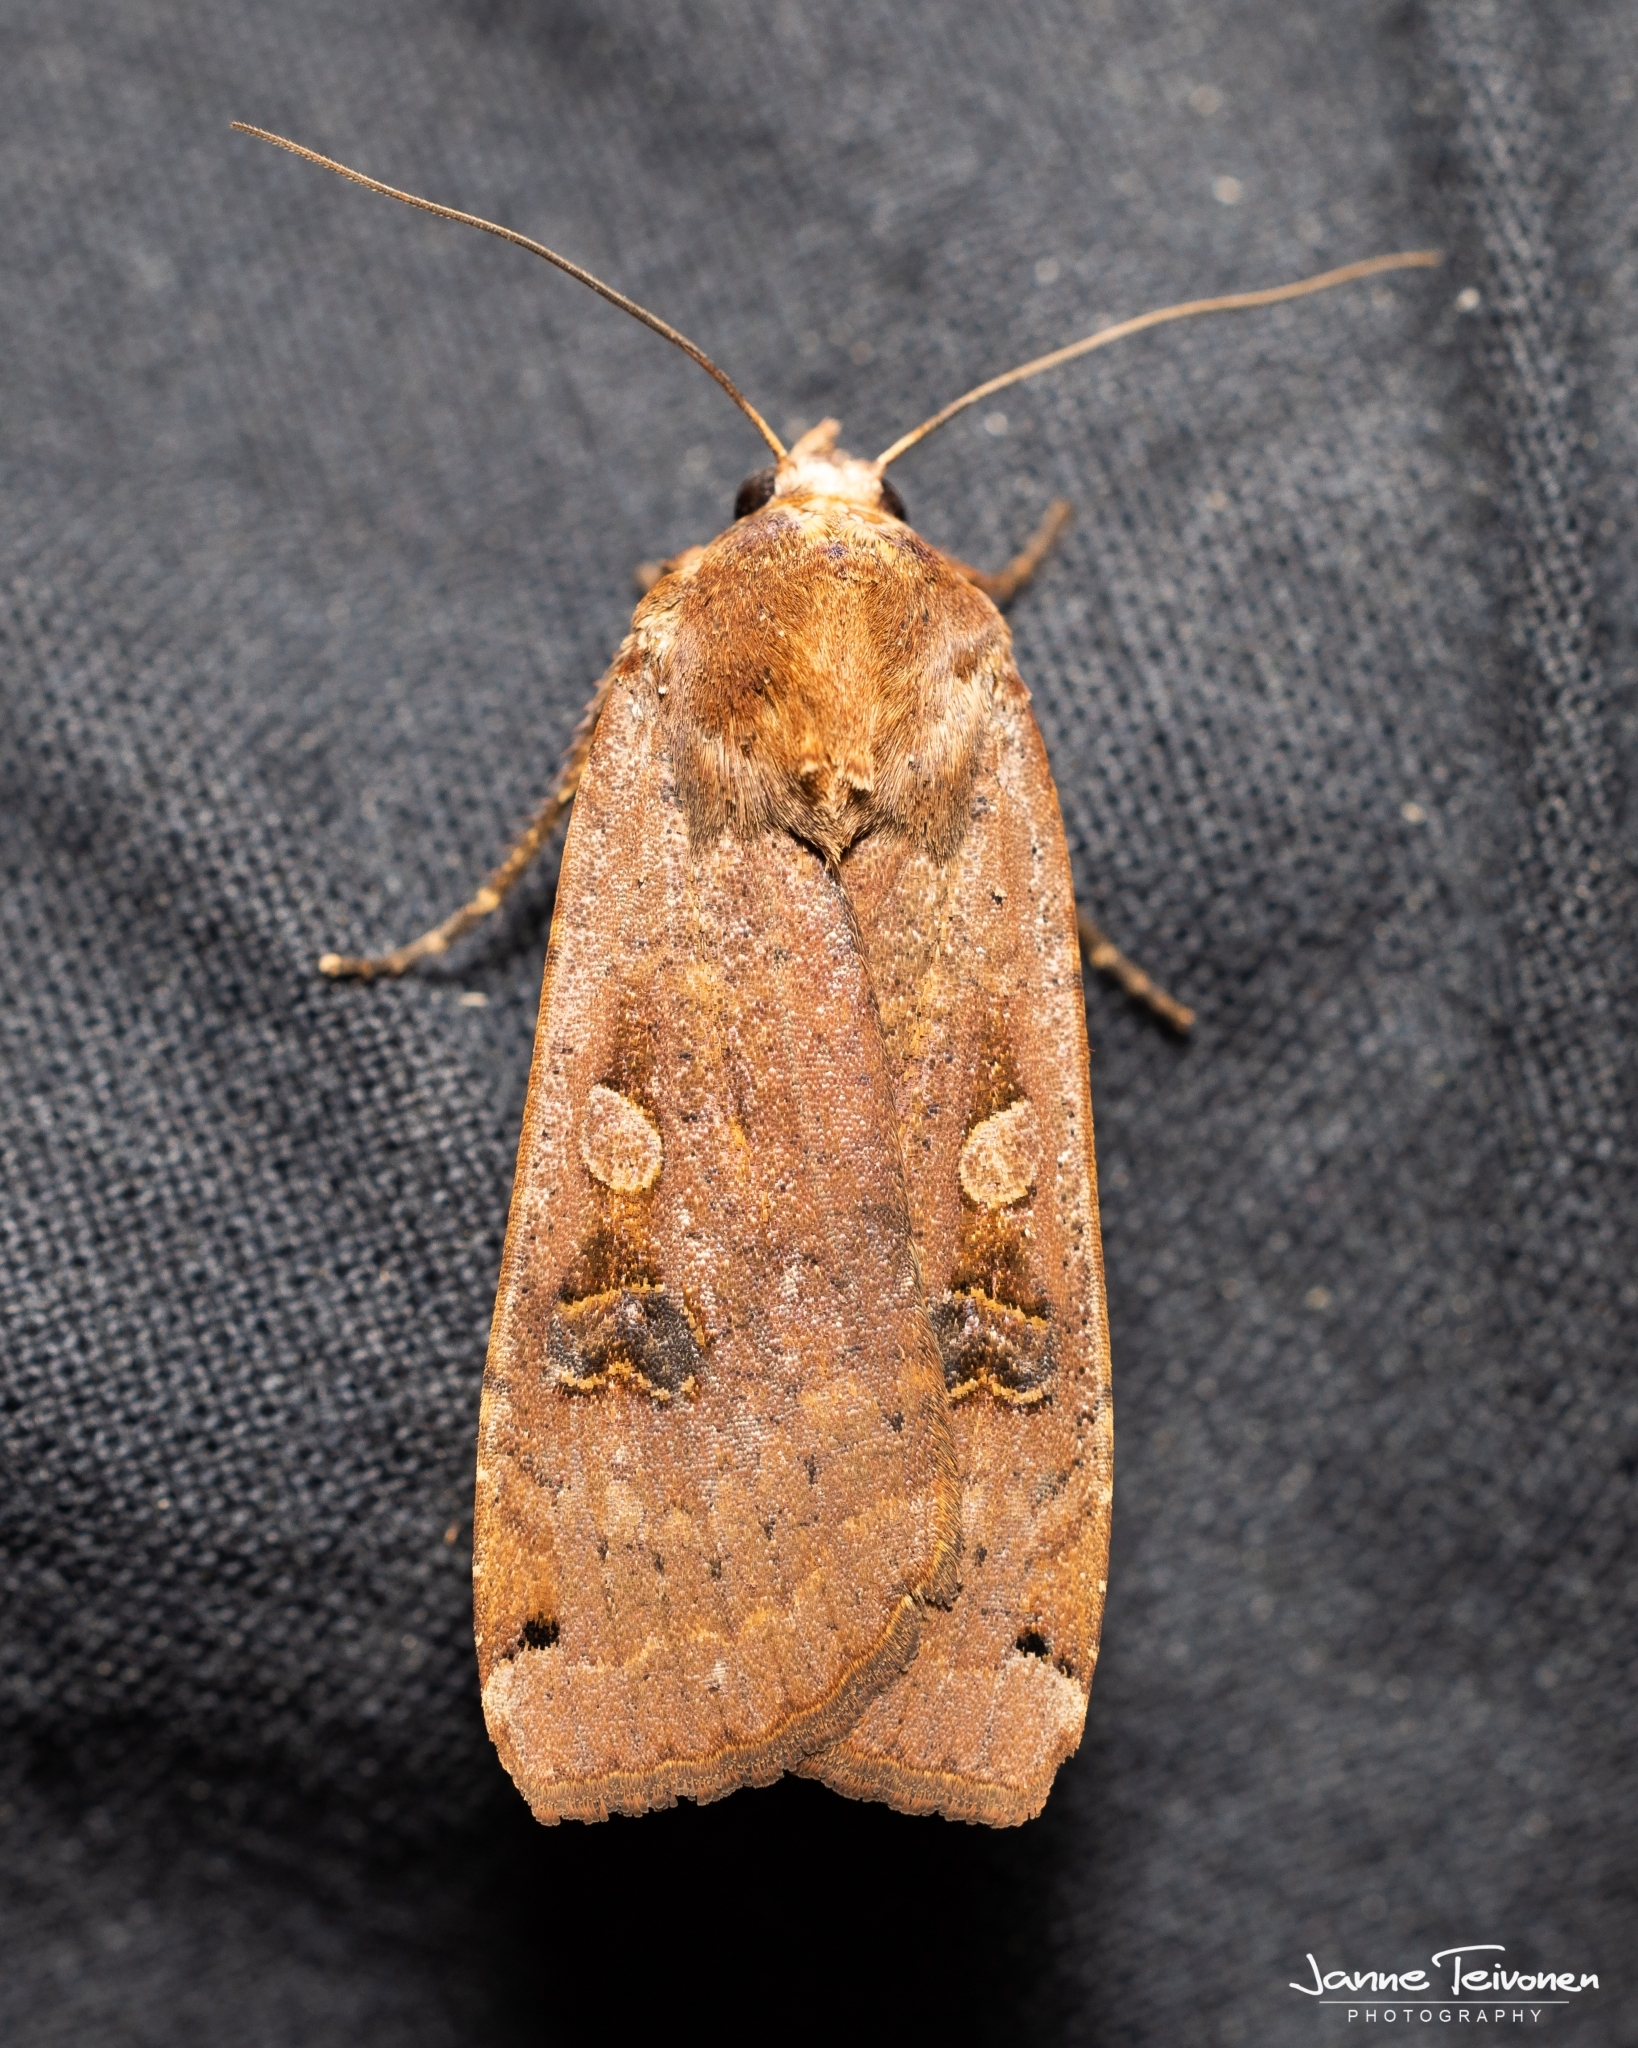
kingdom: Animalia
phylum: Arthropoda
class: Insecta
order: Lepidoptera
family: Noctuidae
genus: Noctua
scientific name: Noctua pronuba
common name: Large yellow underwing
